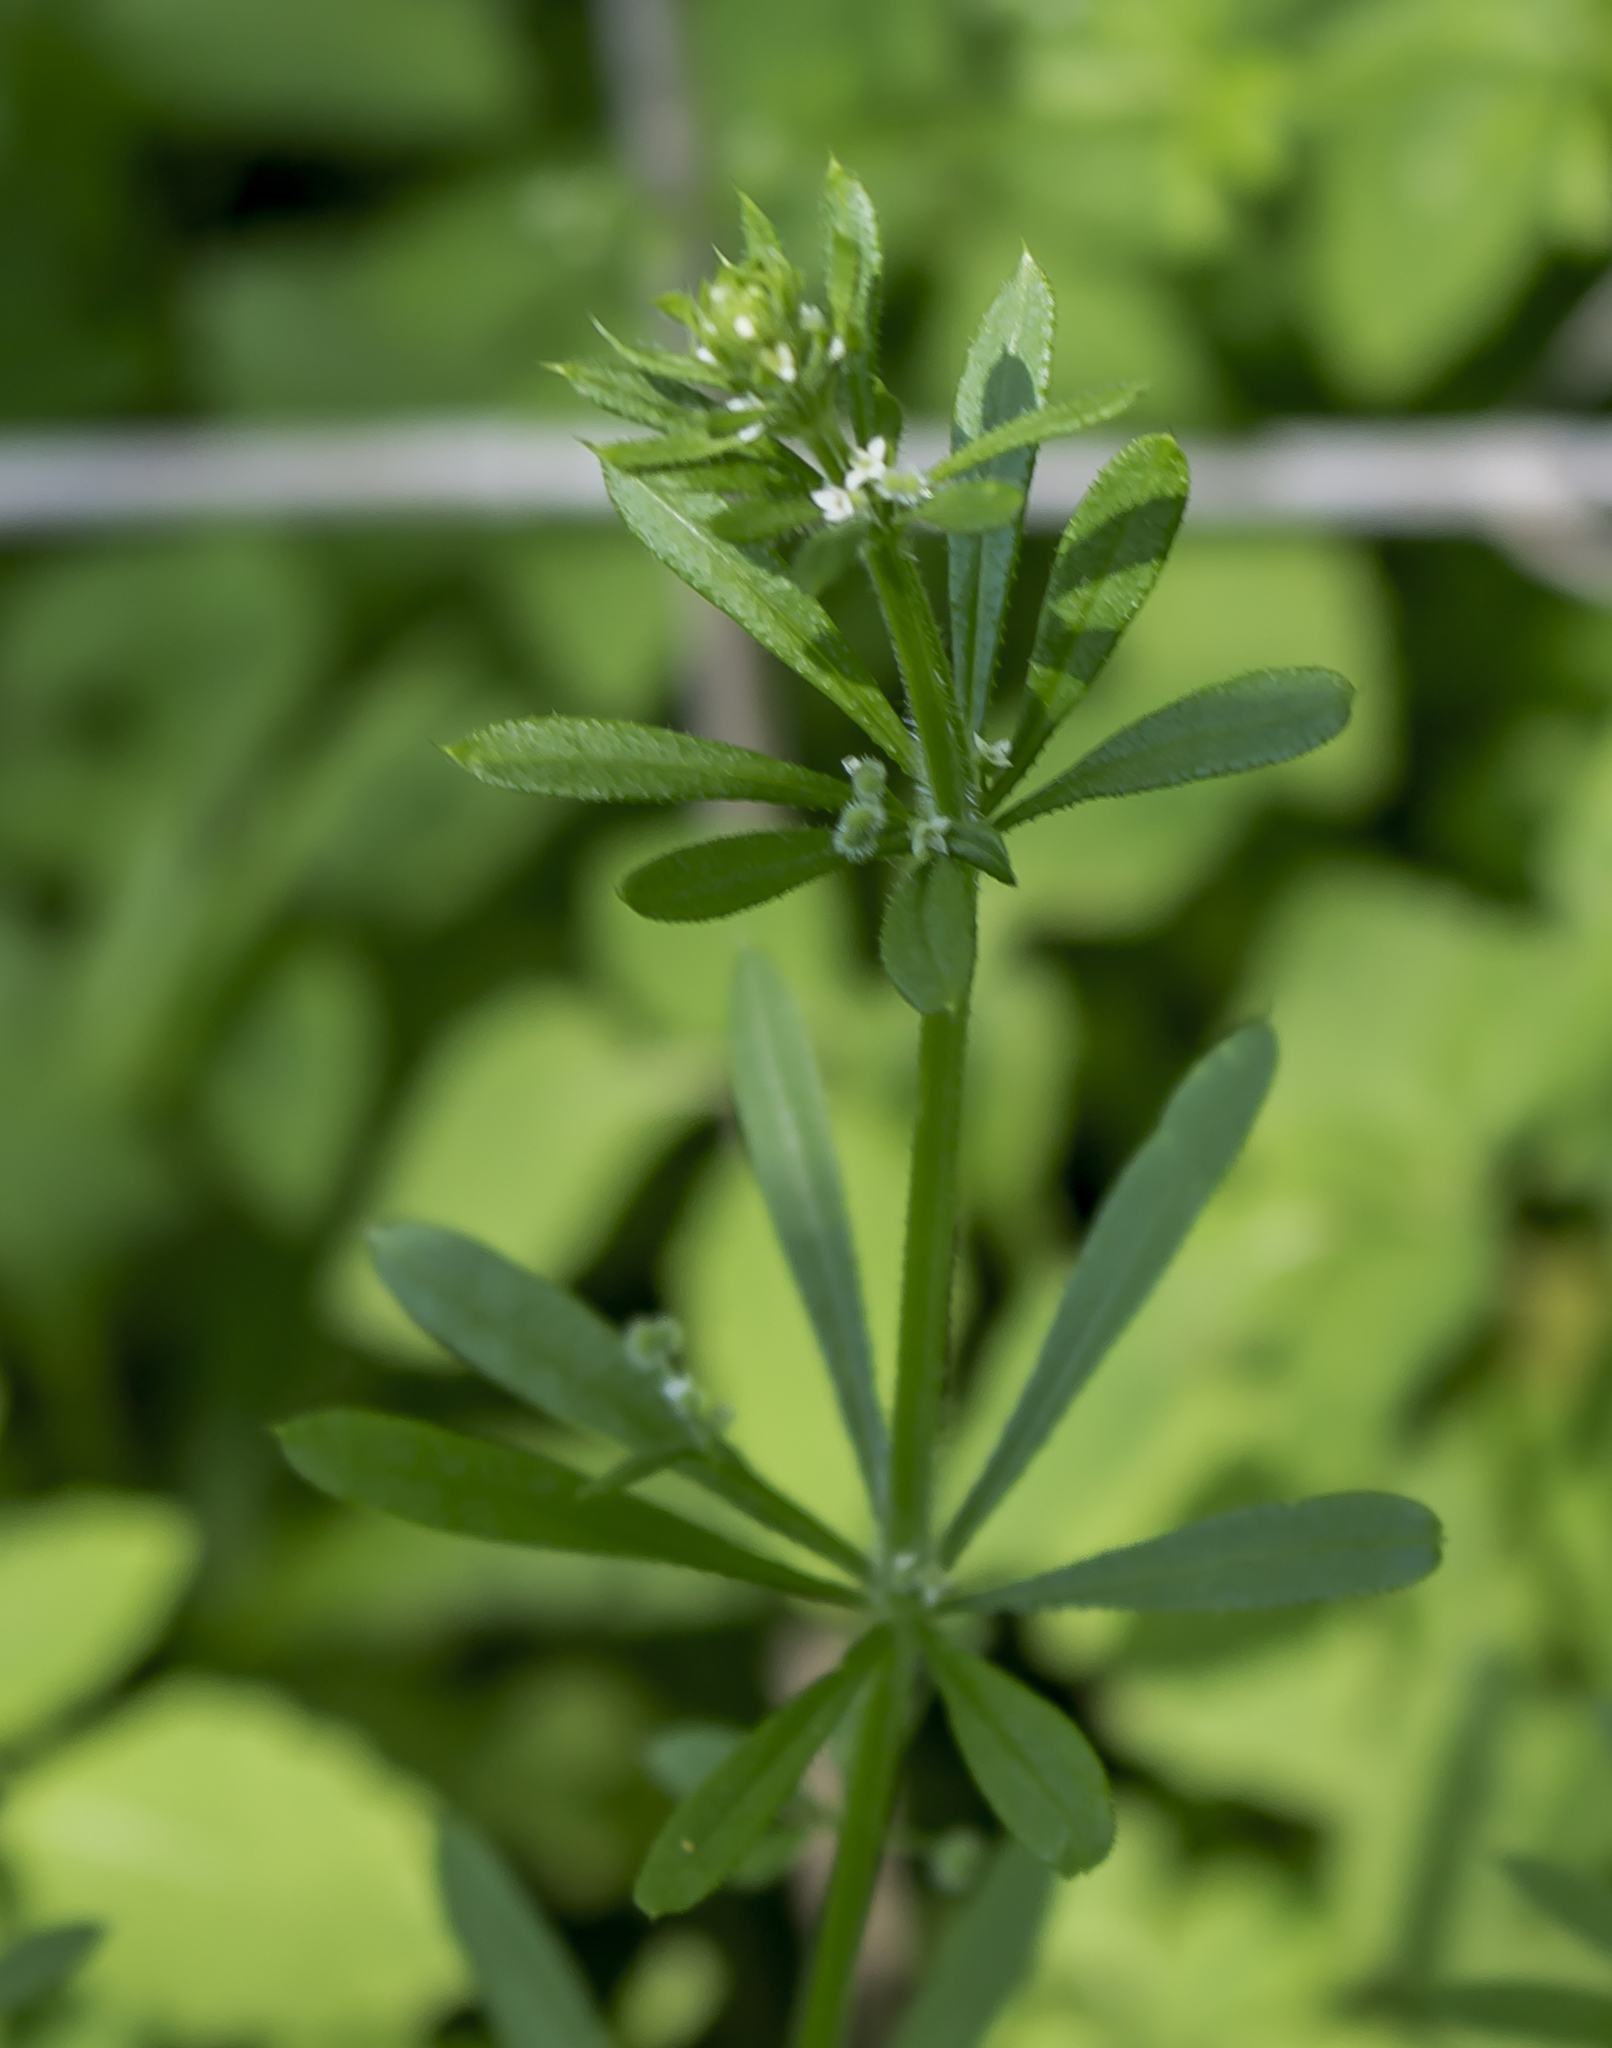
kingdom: Plantae
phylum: Tracheophyta
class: Magnoliopsida
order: Gentianales
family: Rubiaceae
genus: Galium
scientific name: Galium aparine
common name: Cleavers
